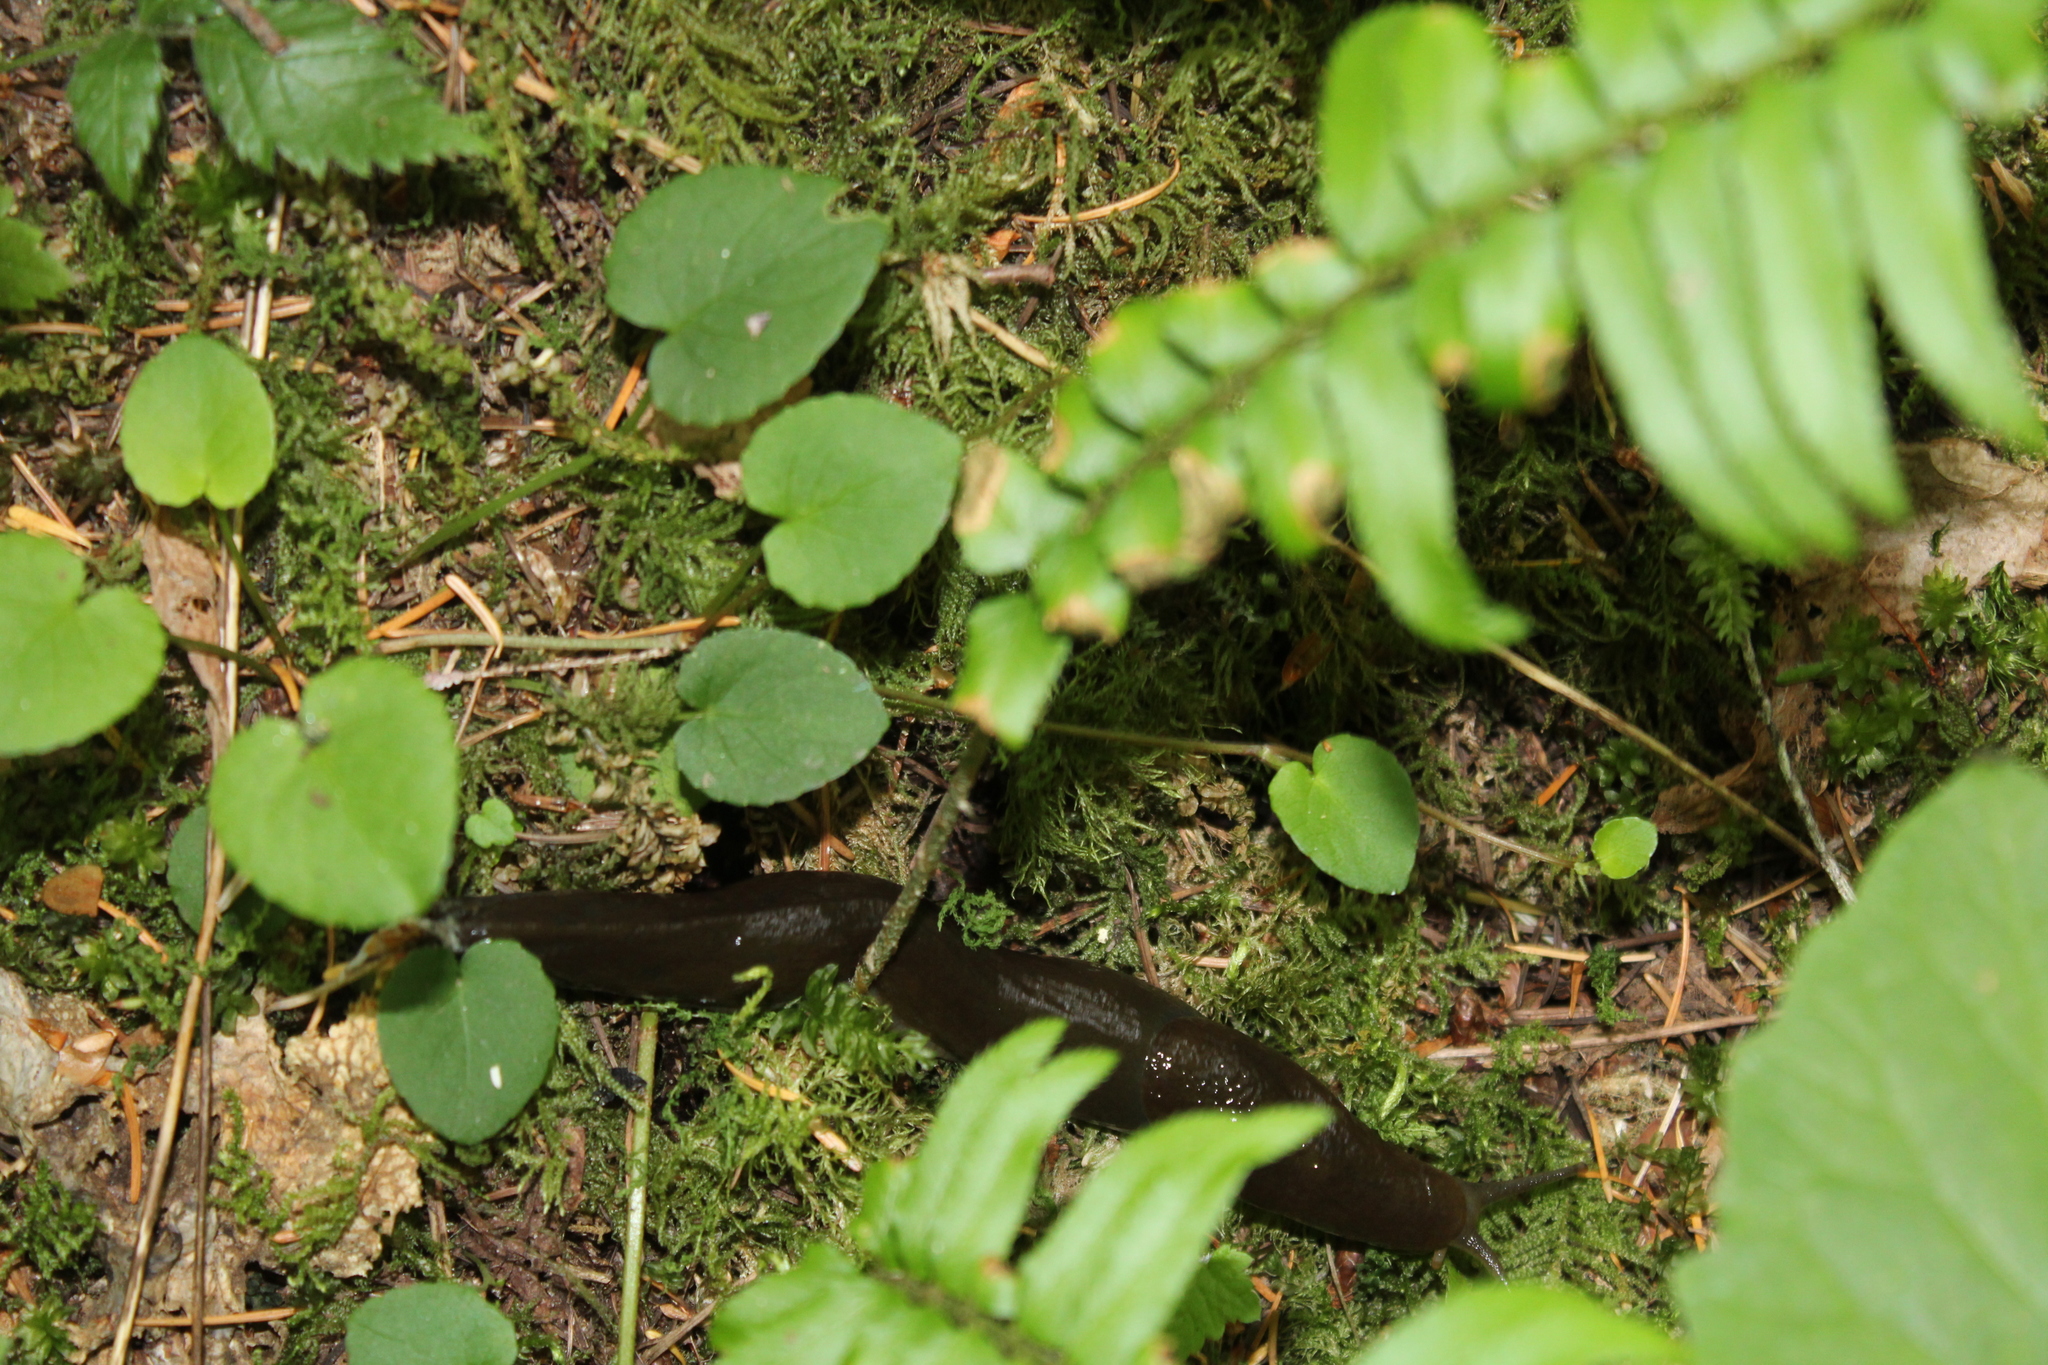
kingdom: Animalia
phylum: Mollusca
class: Gastropoda
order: Stylommatophora
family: Ariolimacidae
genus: Ariolimax
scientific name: Ariolimax columbianus
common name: Pacific banana slug
